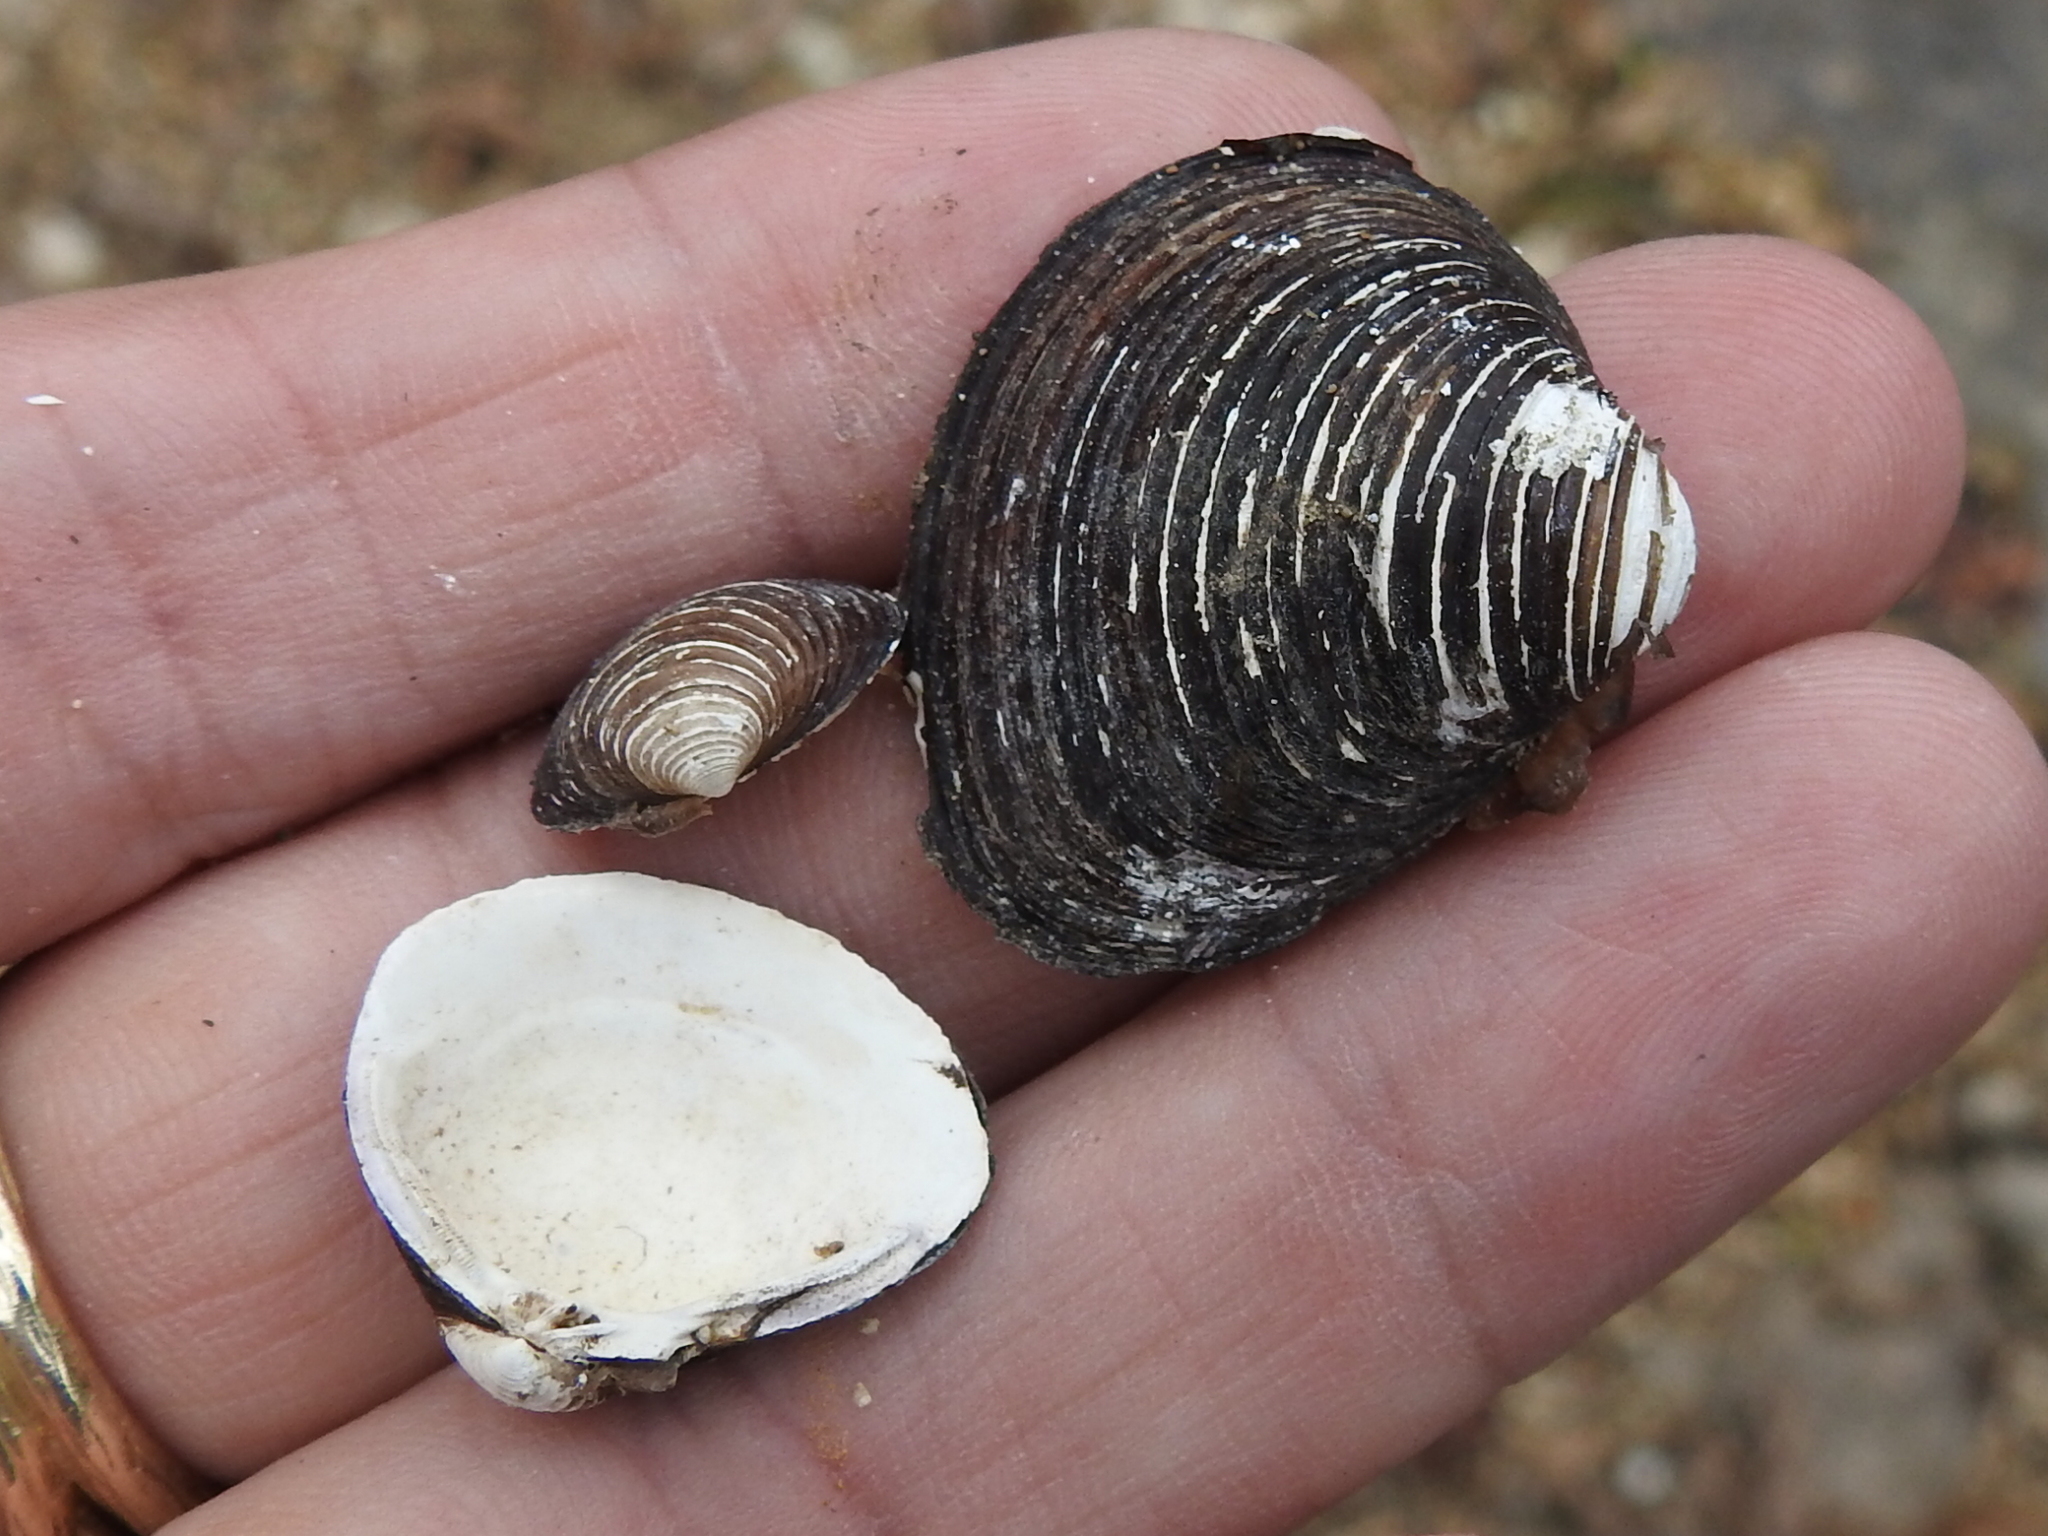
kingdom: Animalia
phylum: Mollusca
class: Bivalvia
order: Venerida
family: Cyrenidae
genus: Corbicula
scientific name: Corbicula fluminea
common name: Asian clam
